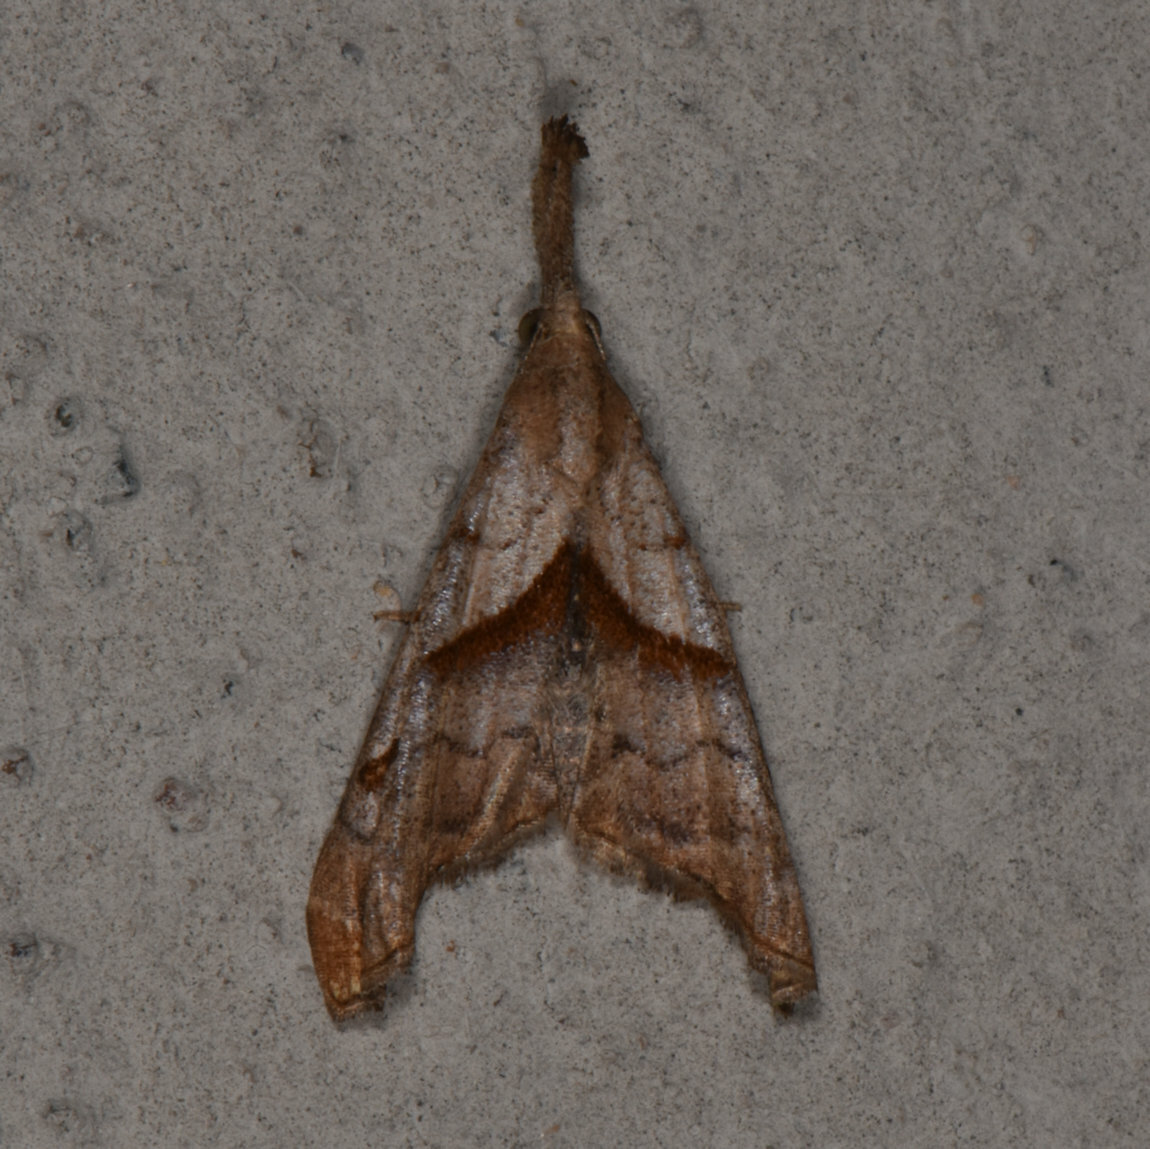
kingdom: Animalia
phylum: Arthropoda
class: Insecta
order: Lepidoptera
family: Erebidae
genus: Palthis
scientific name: Palthis angulalis
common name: Dark-spotted palthis moth
